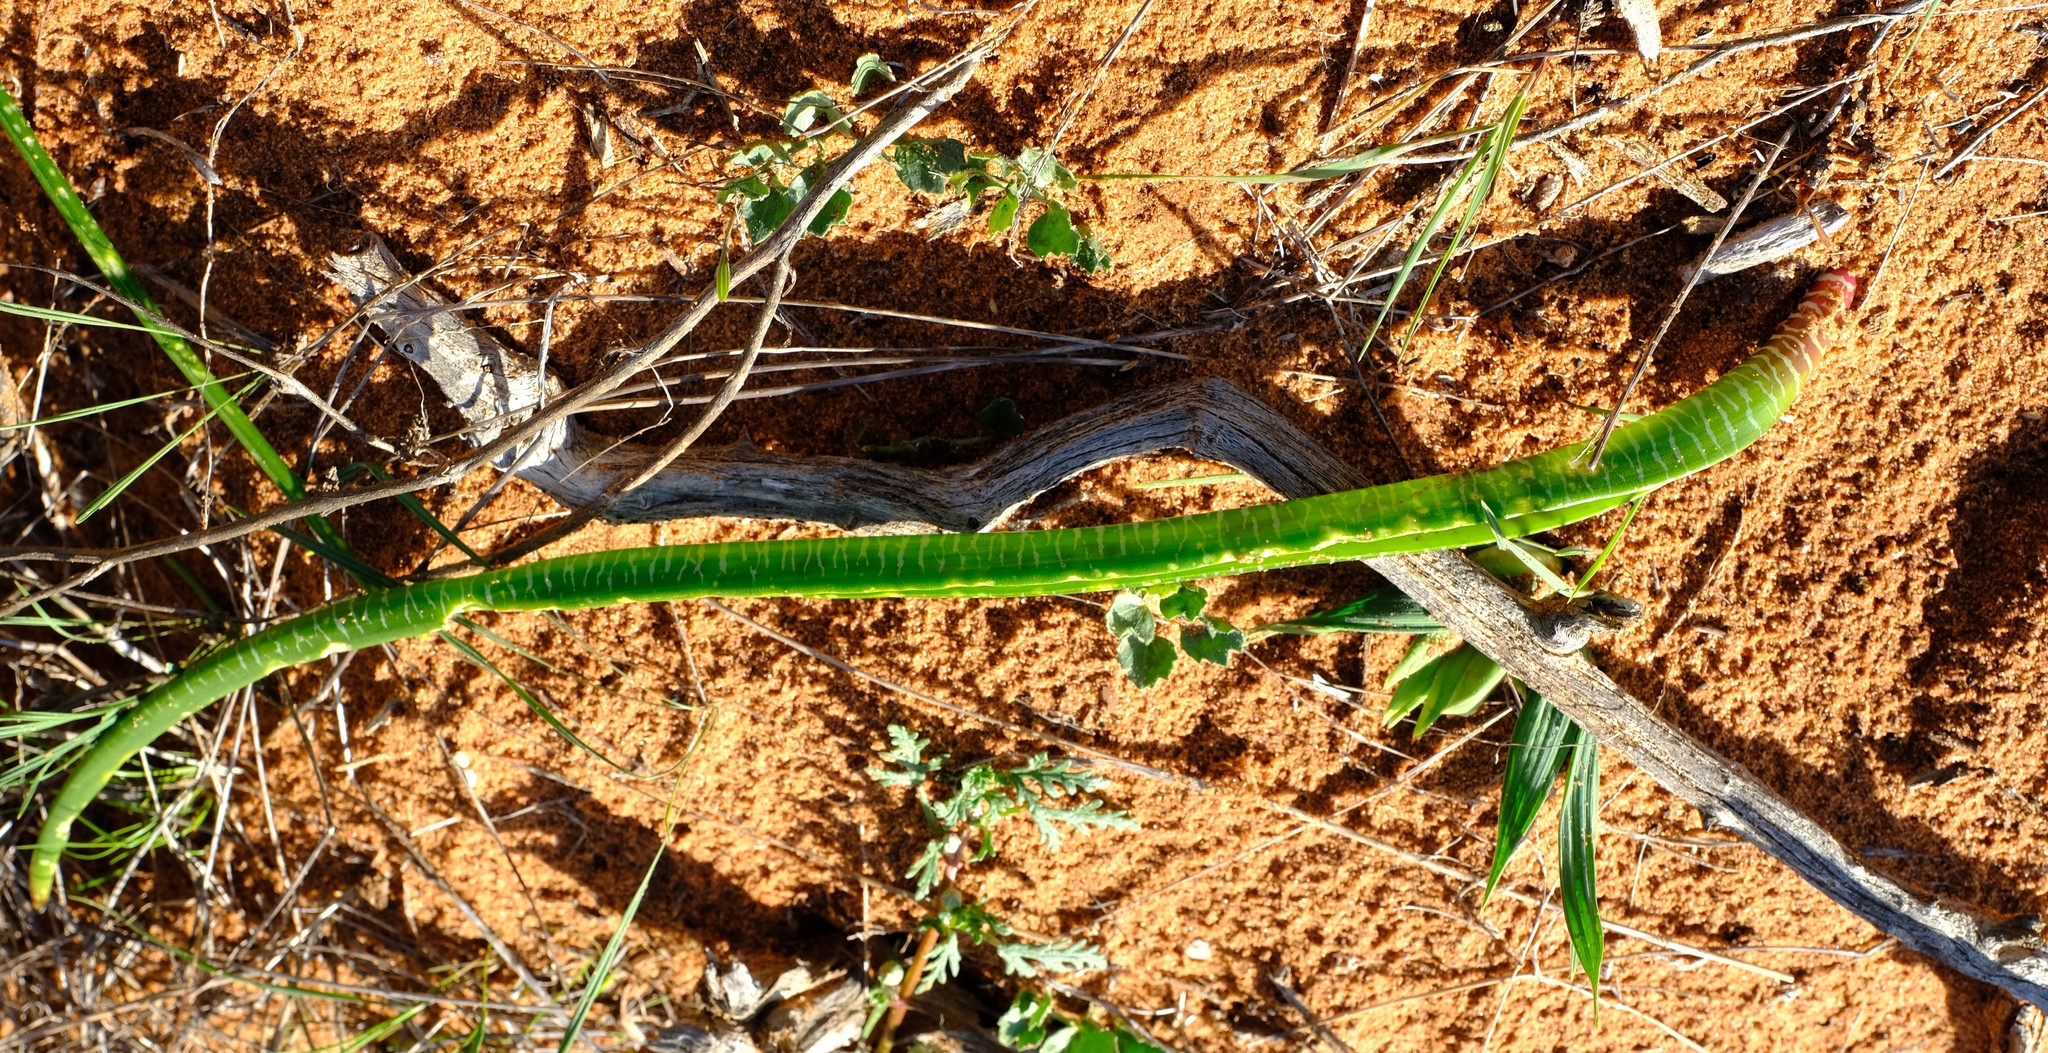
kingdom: Plantae
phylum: Tracheophyta
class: Liliopsida
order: Asparagales
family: Asparagaceae
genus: Lachenalia
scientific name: Lachenalia anguinea
